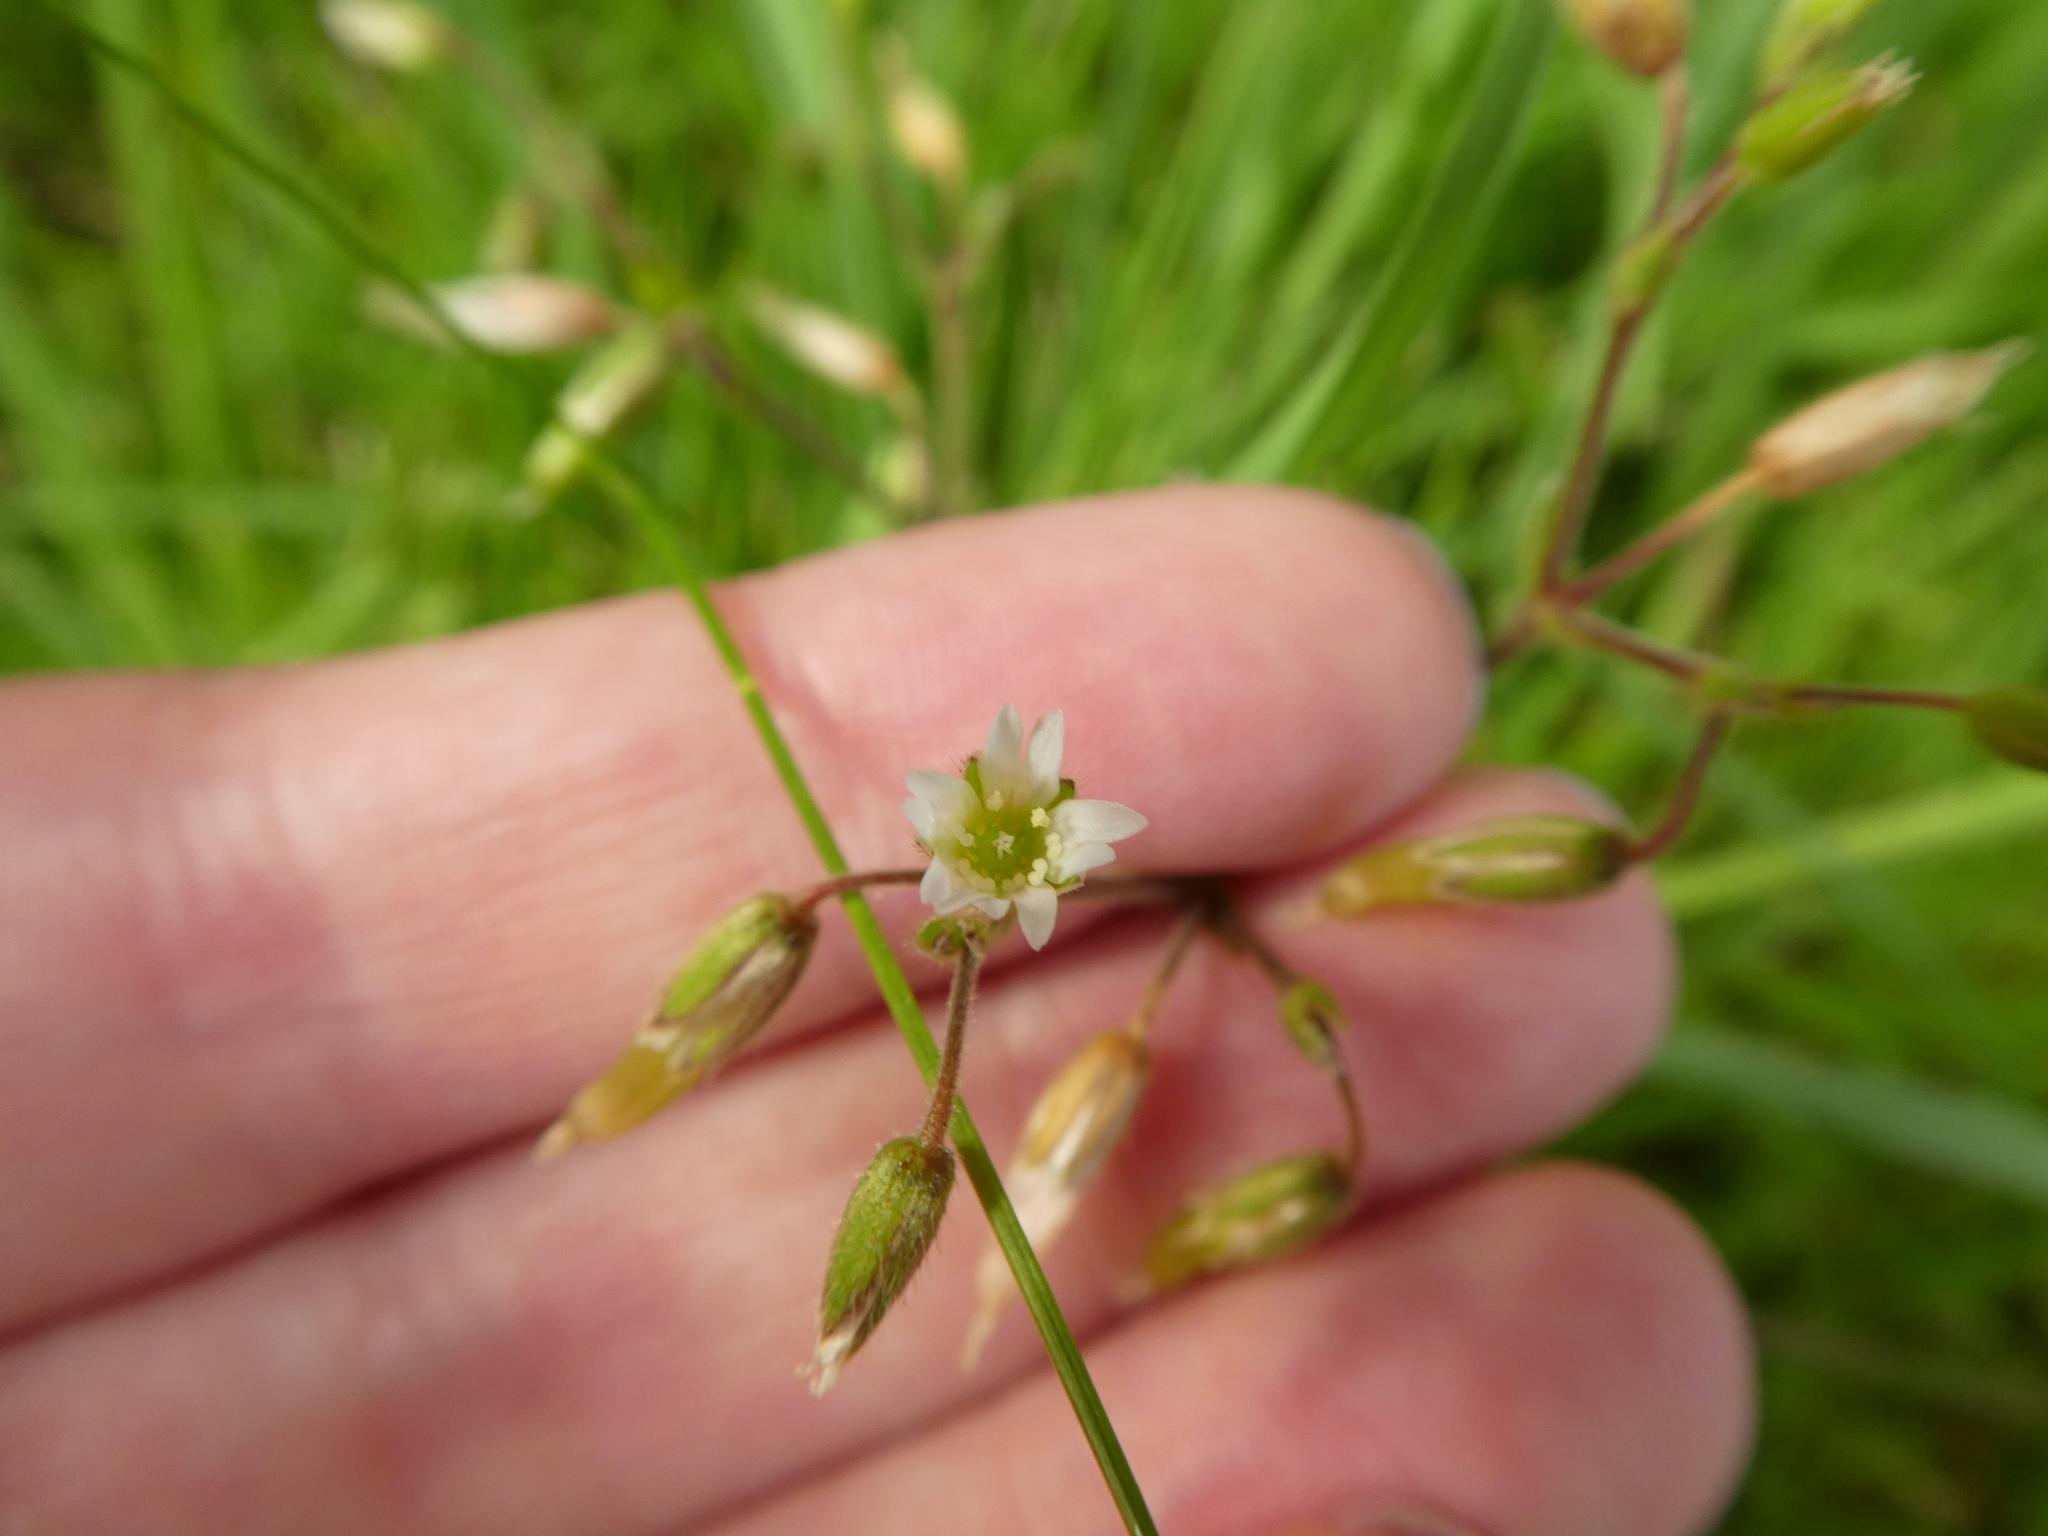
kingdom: Plantae
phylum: Tracheophyta
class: Magnoliopsida
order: Caryophyllales
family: Caryophyllaceae
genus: Cerastium
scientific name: Cerastium fontanum
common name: Common mouse-ear
